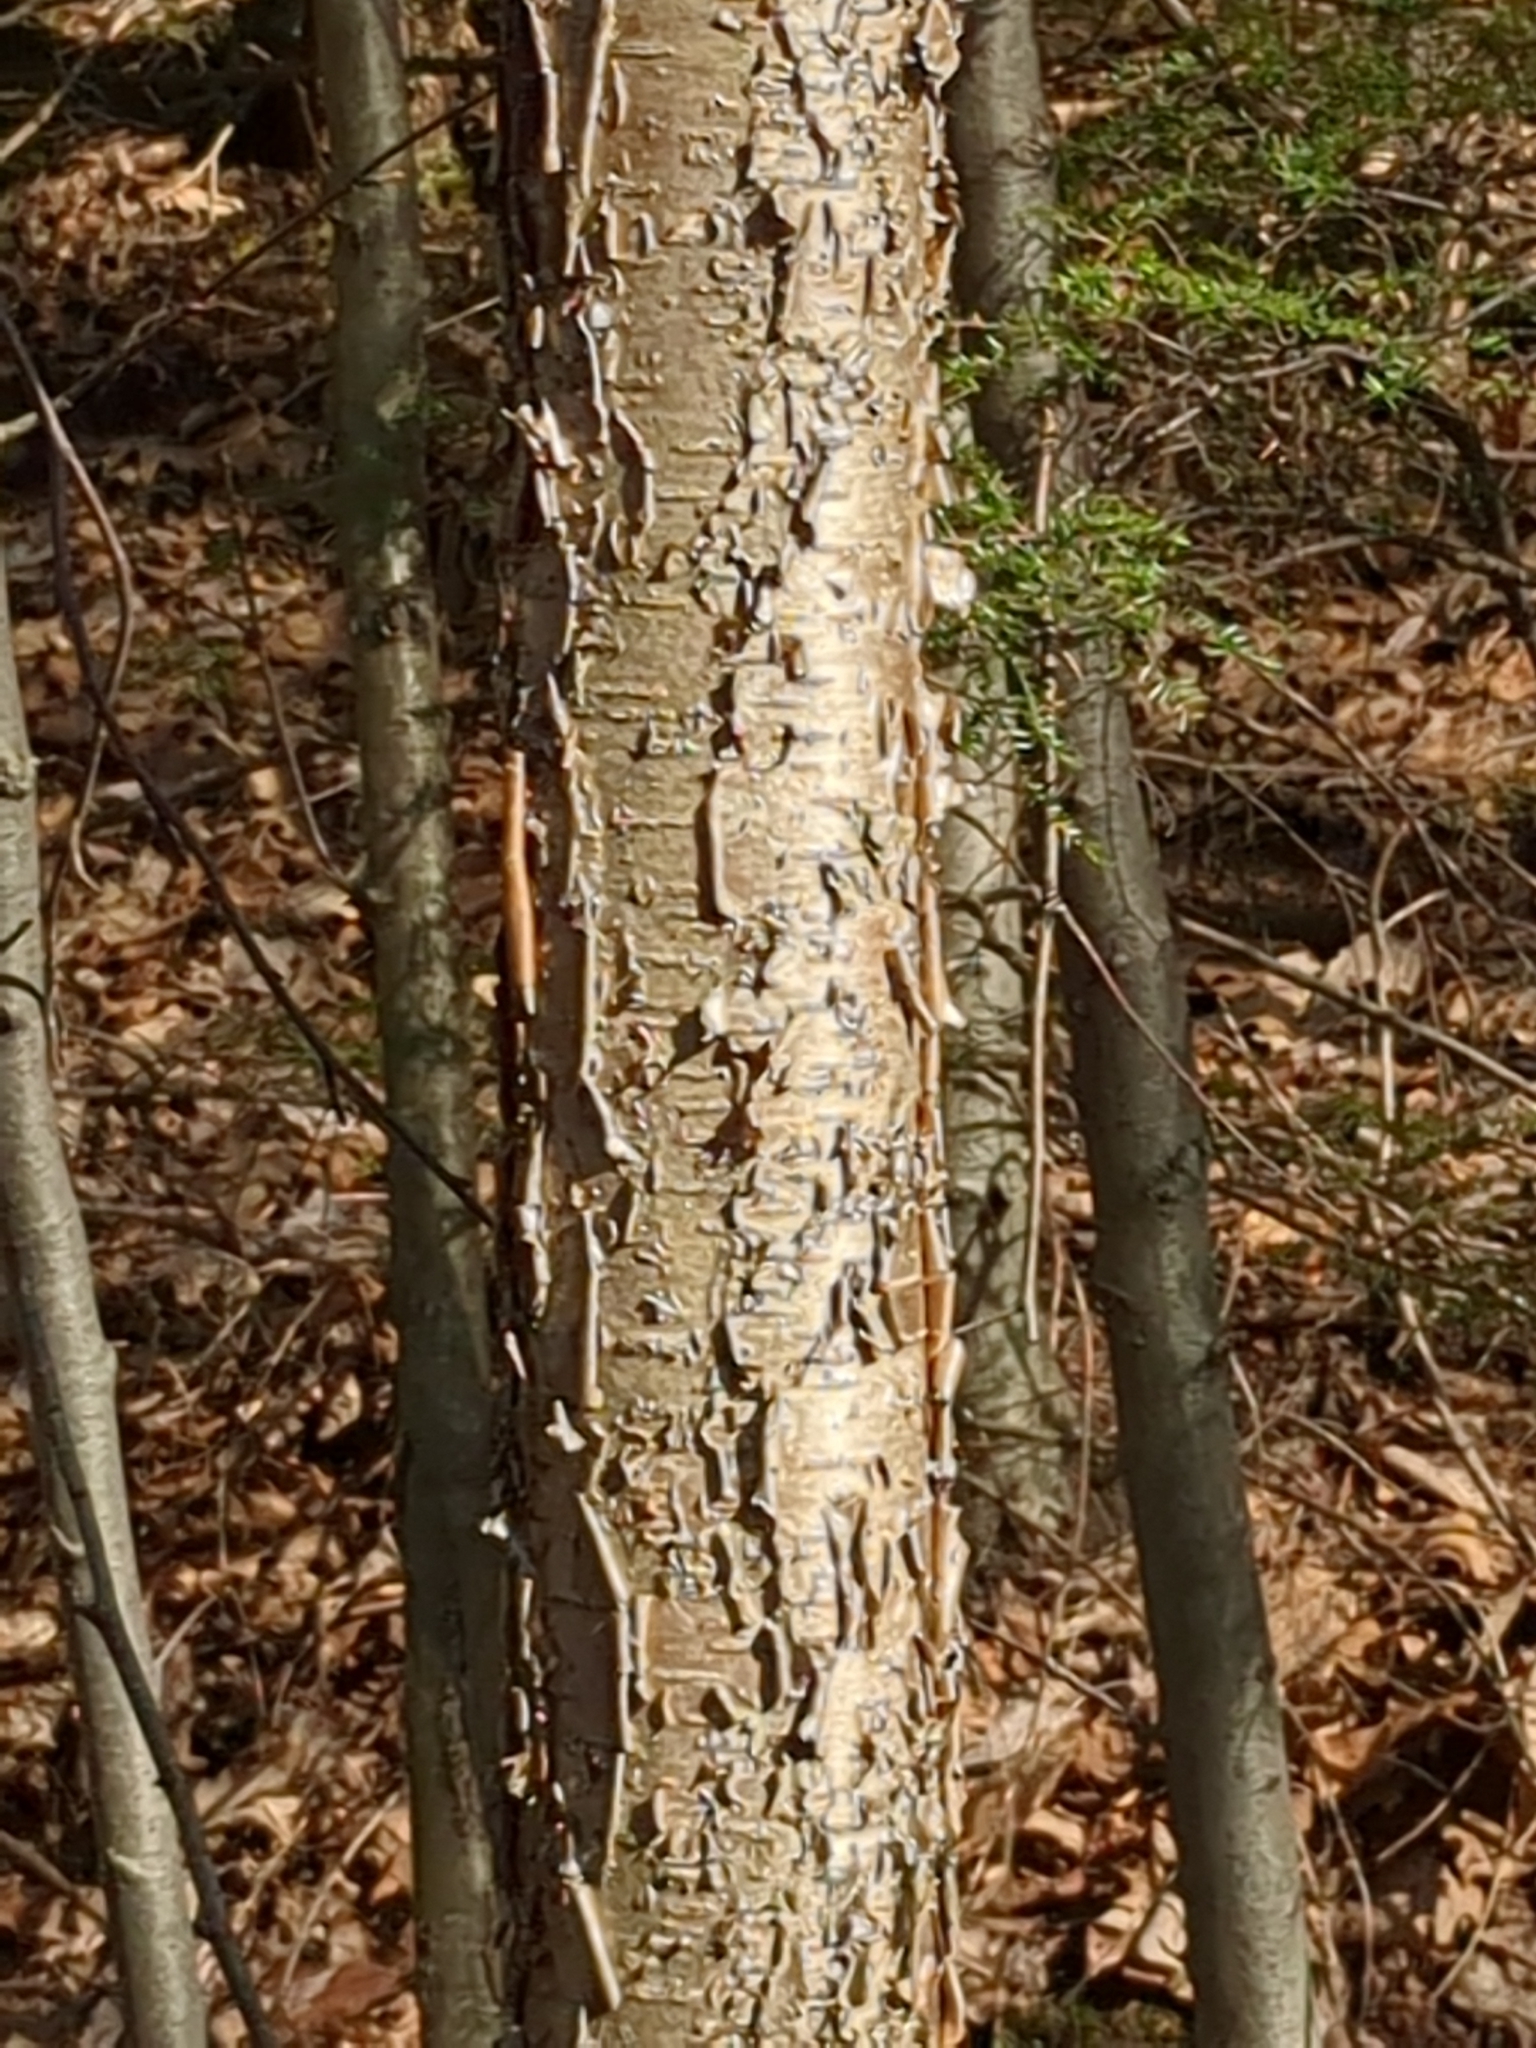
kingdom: Plantae
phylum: Tracheophyta
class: Magnoliopsida
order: Fagales
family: Betulaceae
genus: Betula
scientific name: Betula alleghaniensis
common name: Yellow birch
